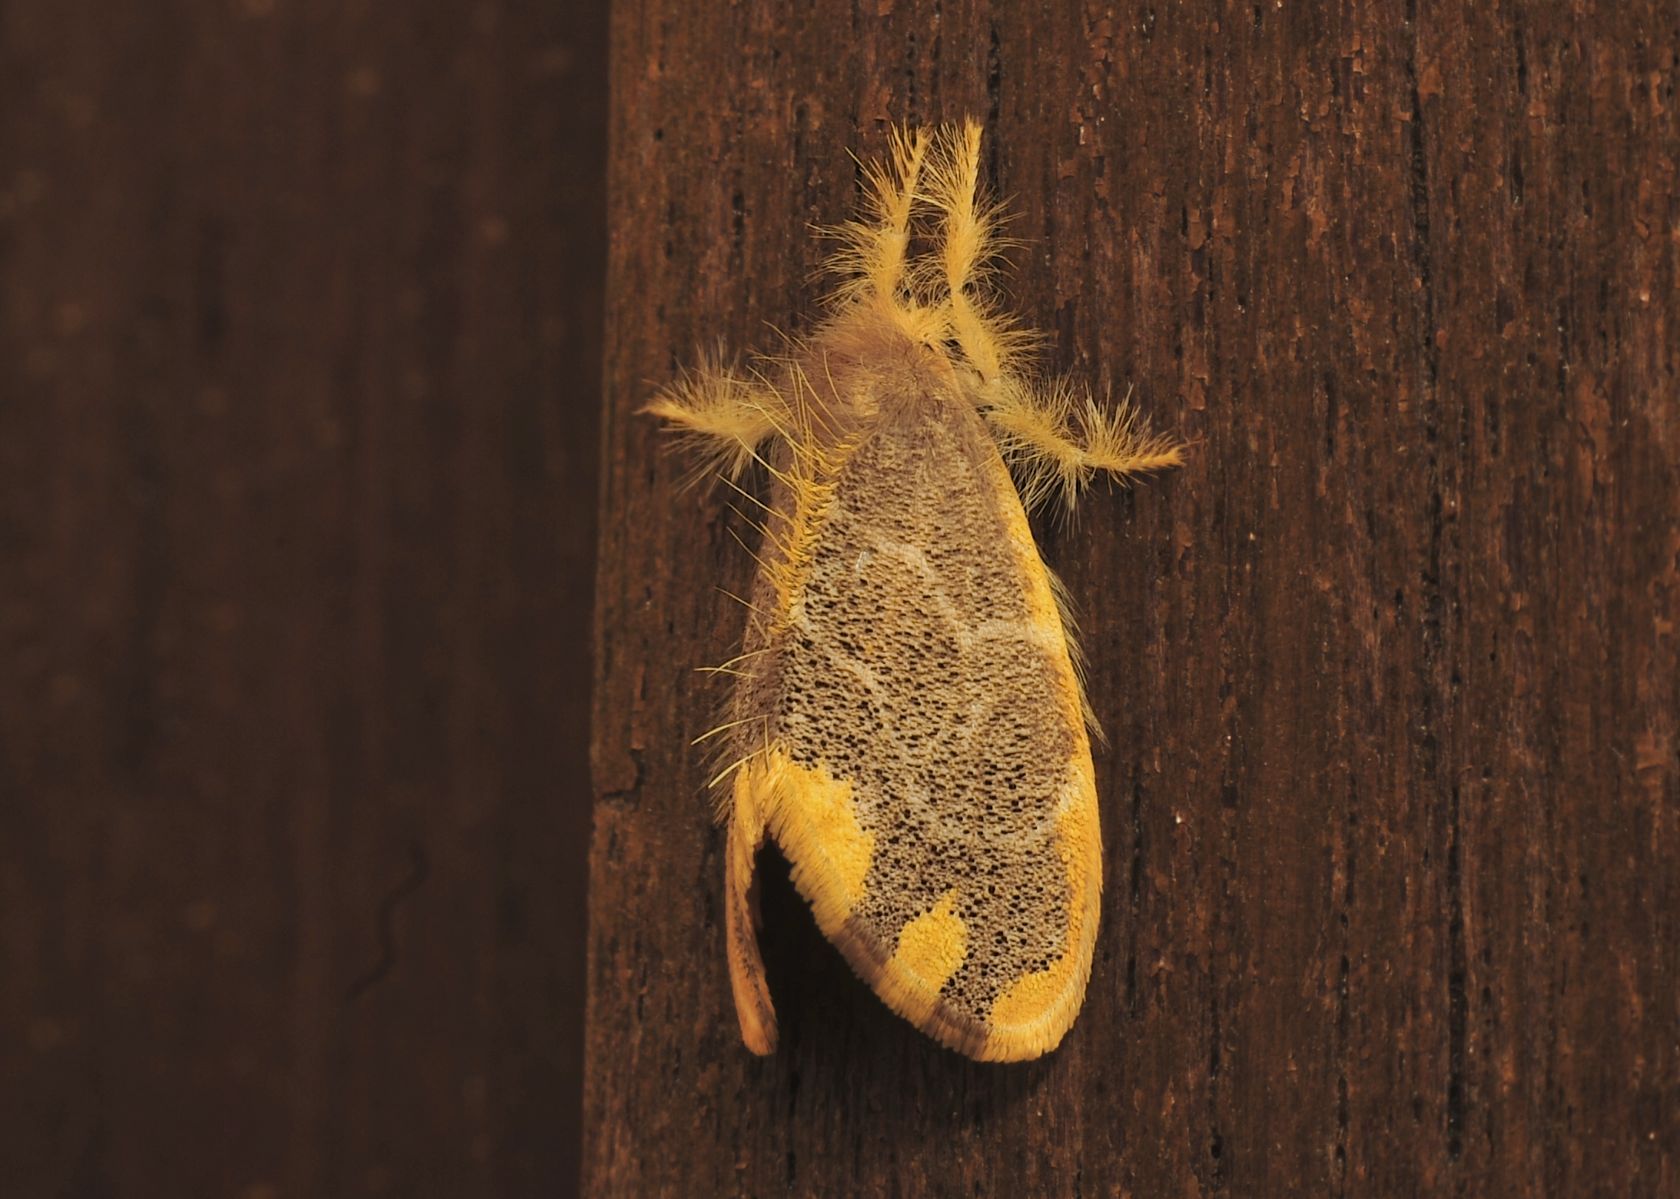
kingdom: Animalia
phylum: Arthropoda
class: Insecta
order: Lepidoptera
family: Erebidae
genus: Orvasca
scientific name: Orvasca subnotata
